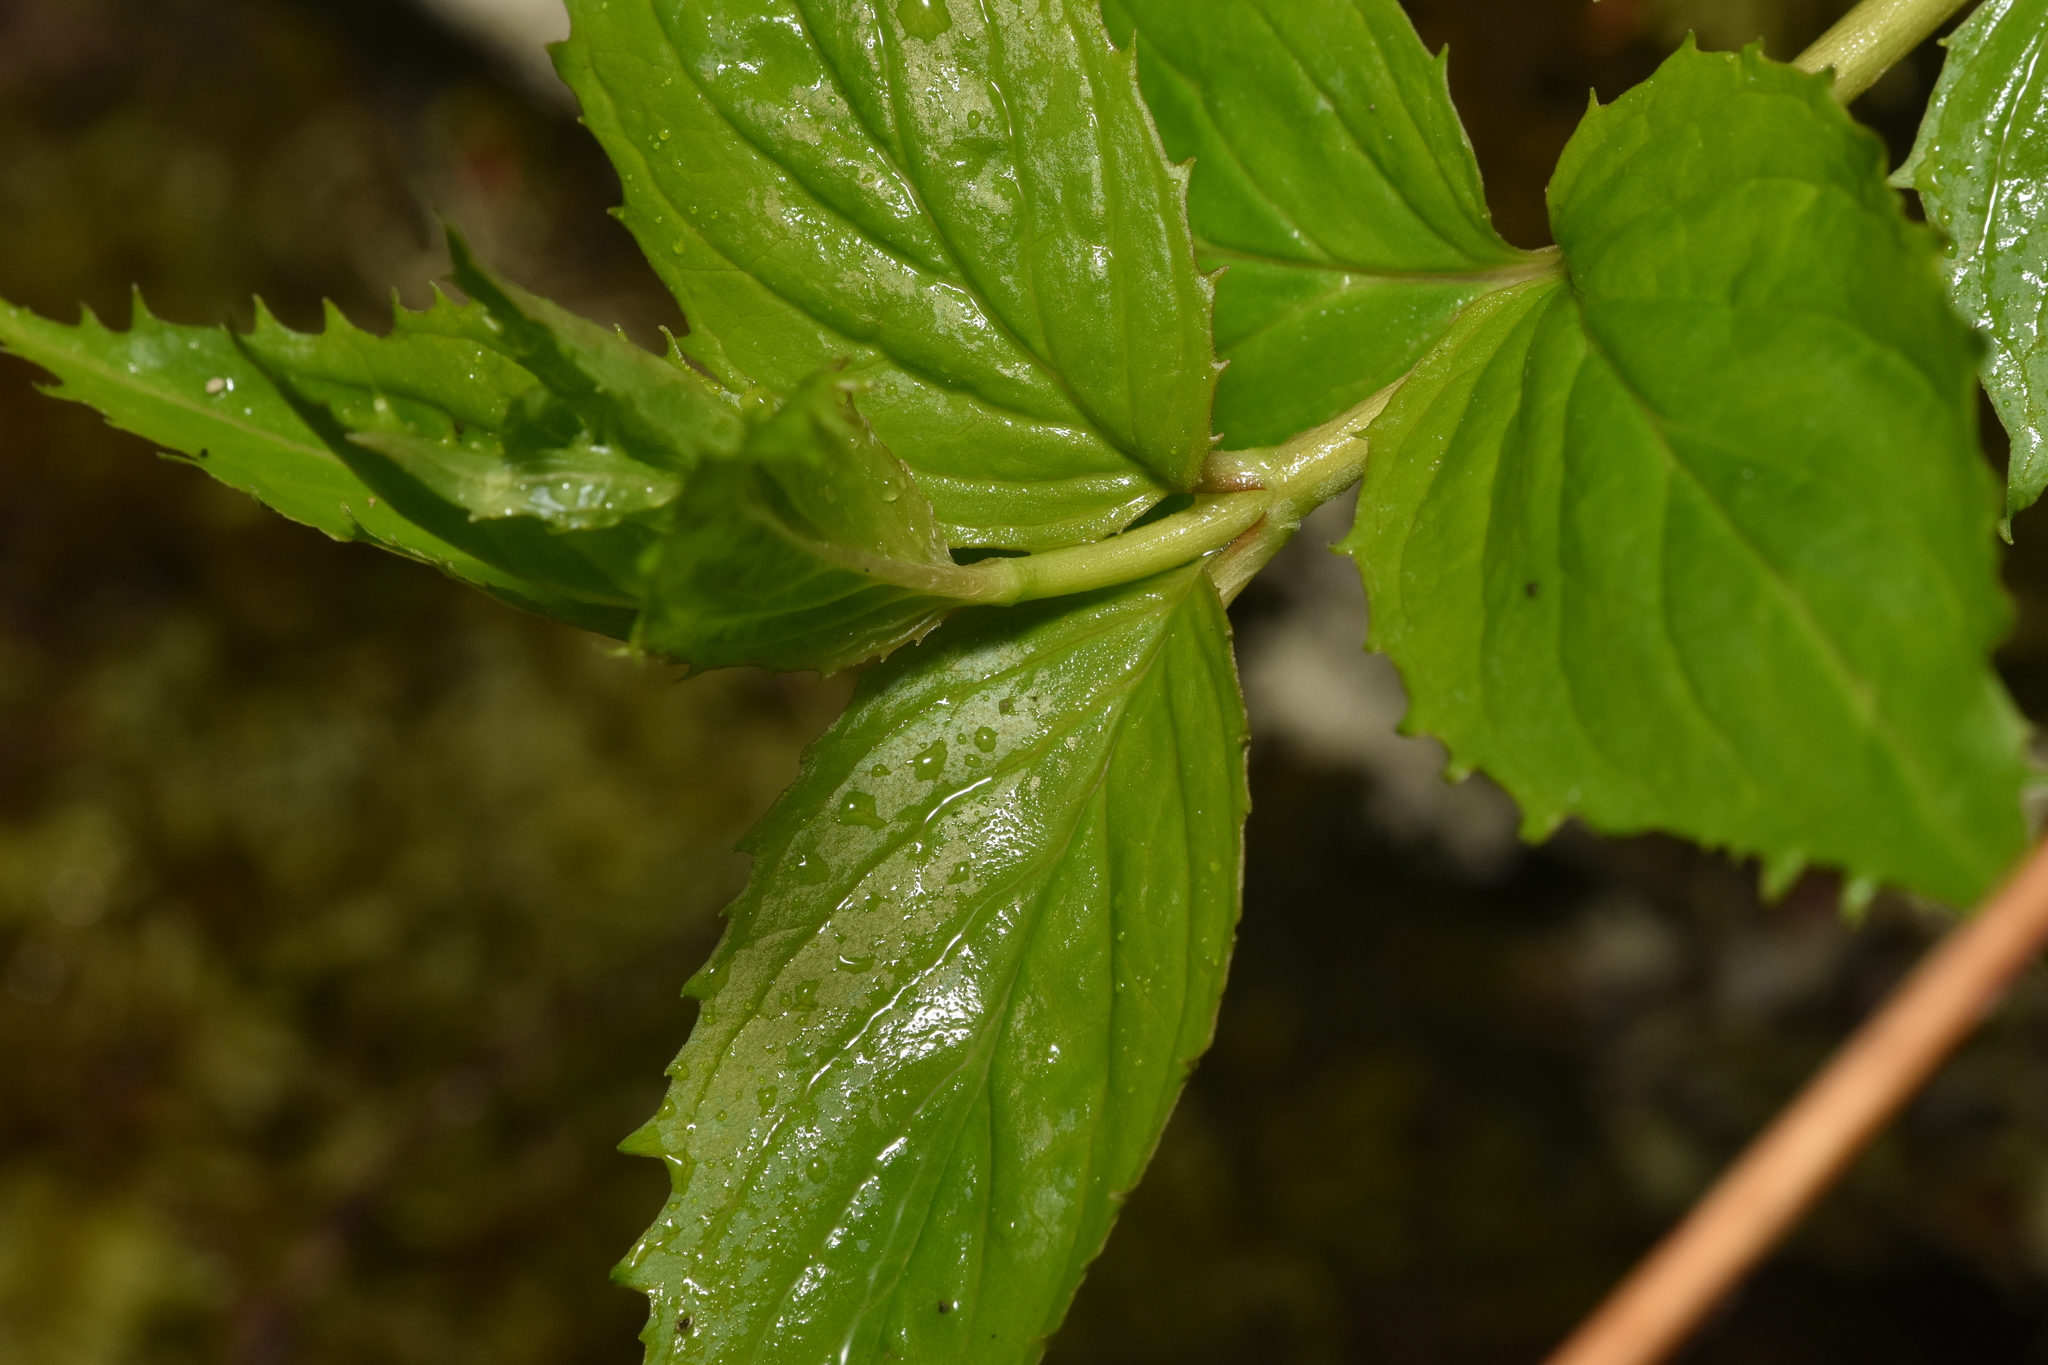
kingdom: Plantae
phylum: Tracheophyta
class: Magnoliopsida
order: Lamiales
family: Plantaginaceae
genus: Nothochelone
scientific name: Nothochelone nemorosa
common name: Woodland beardtongue
